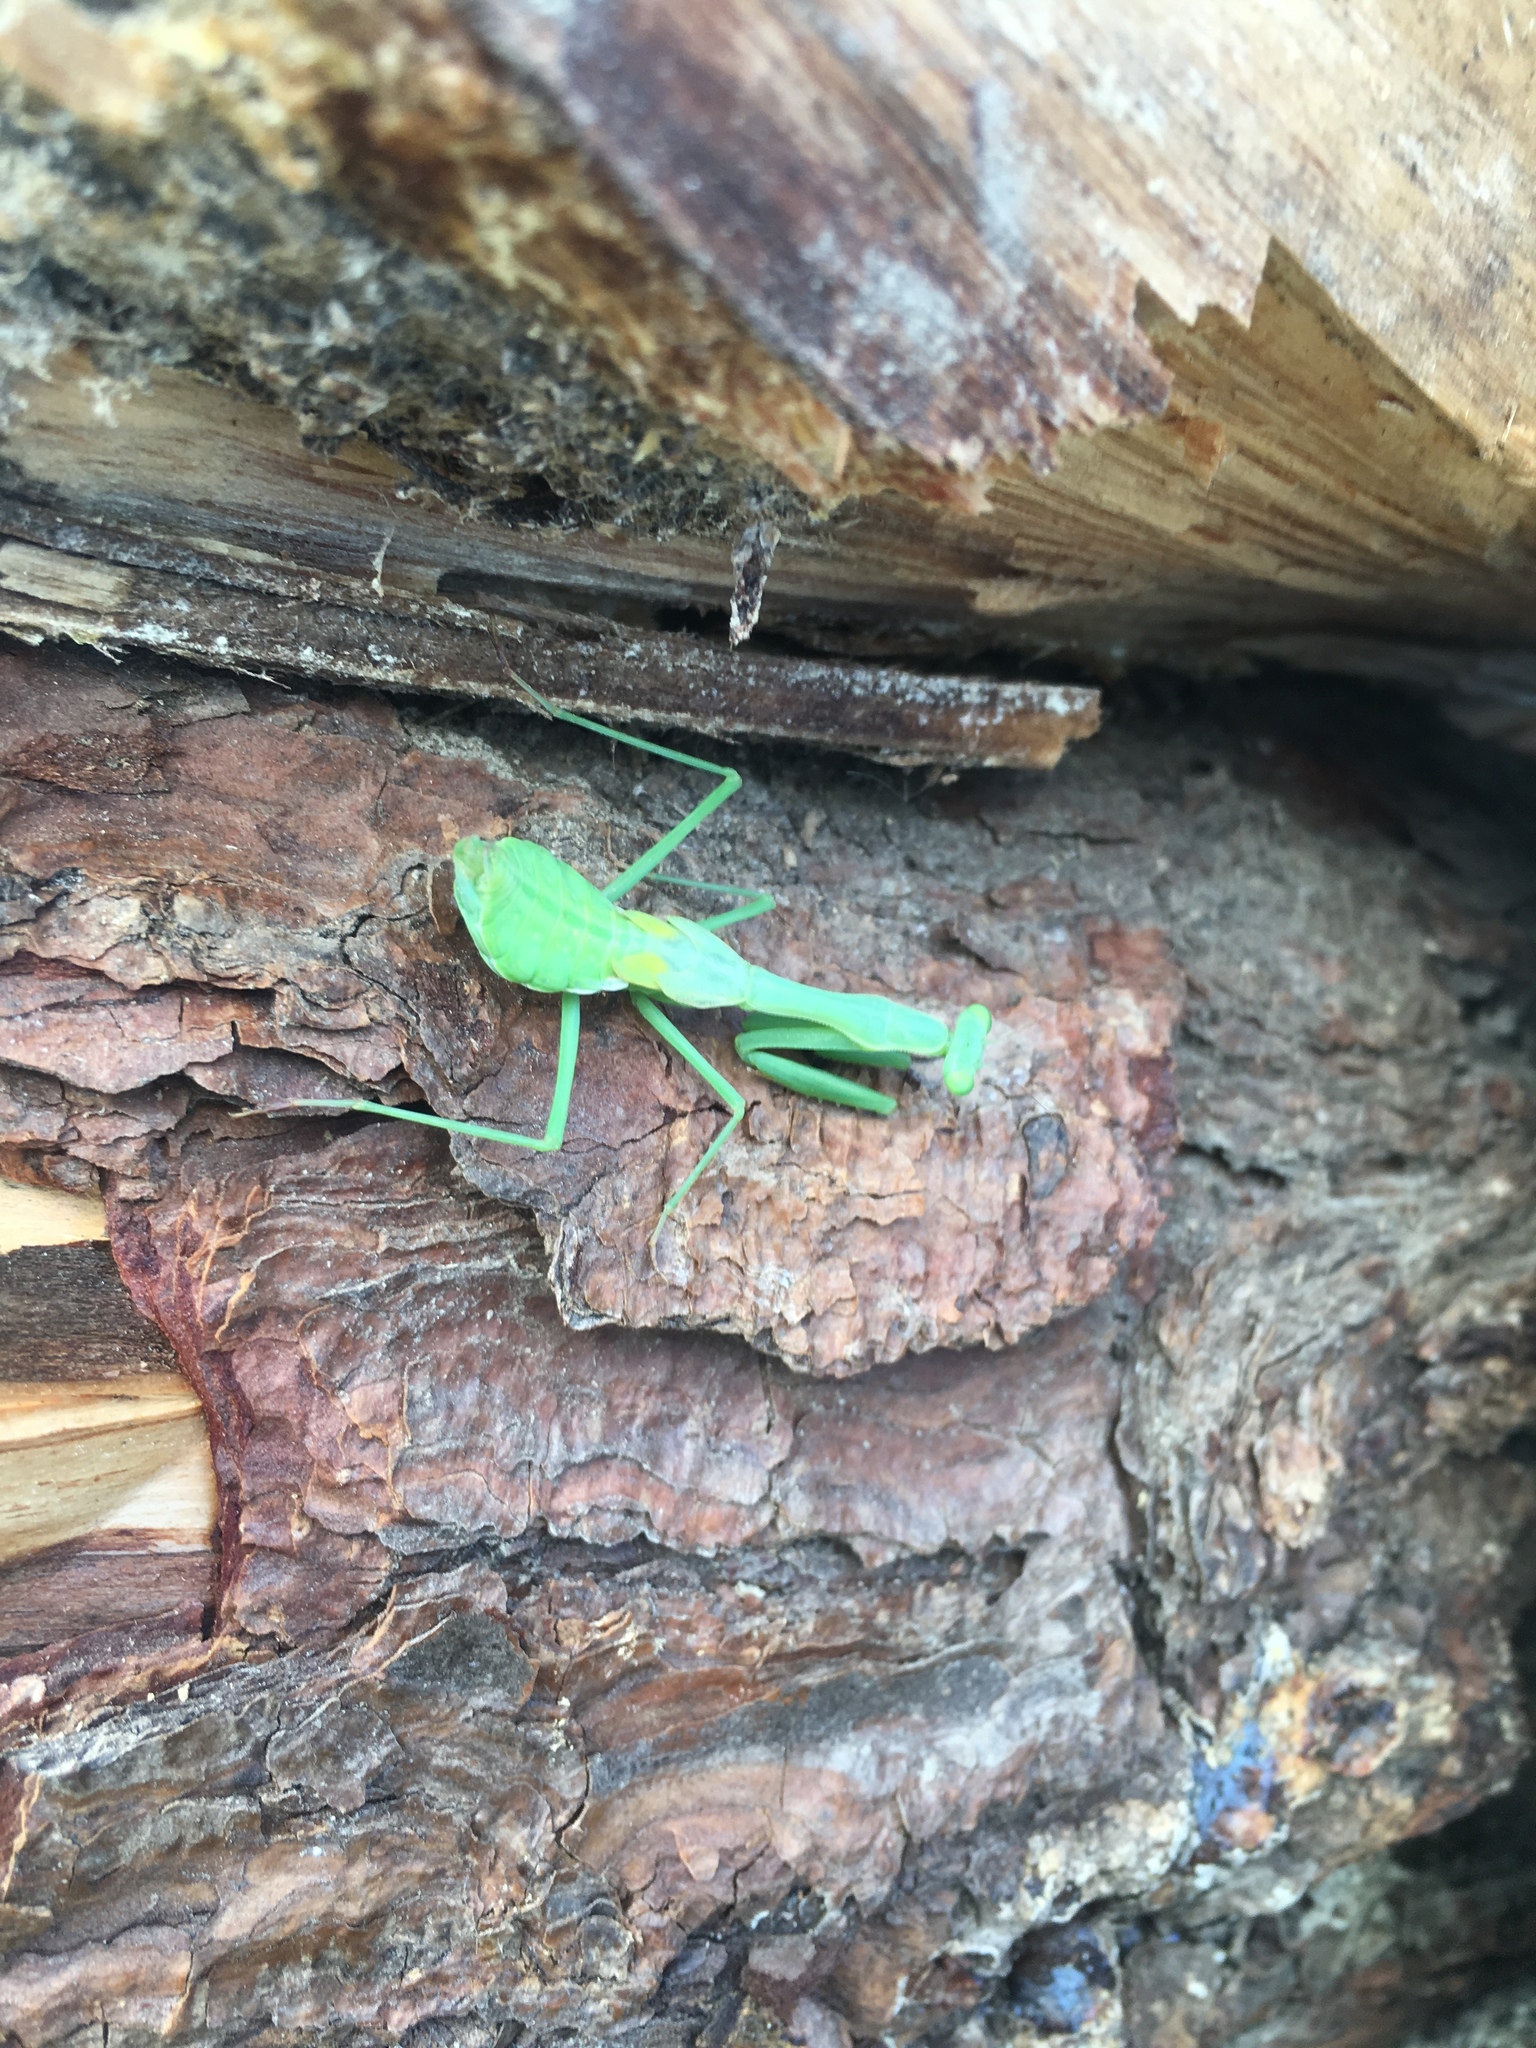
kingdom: Animalia
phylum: Arthropoda
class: Insecta
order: Mantodea
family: Miomantidae
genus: Miomantis
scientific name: Miomantis caffra
